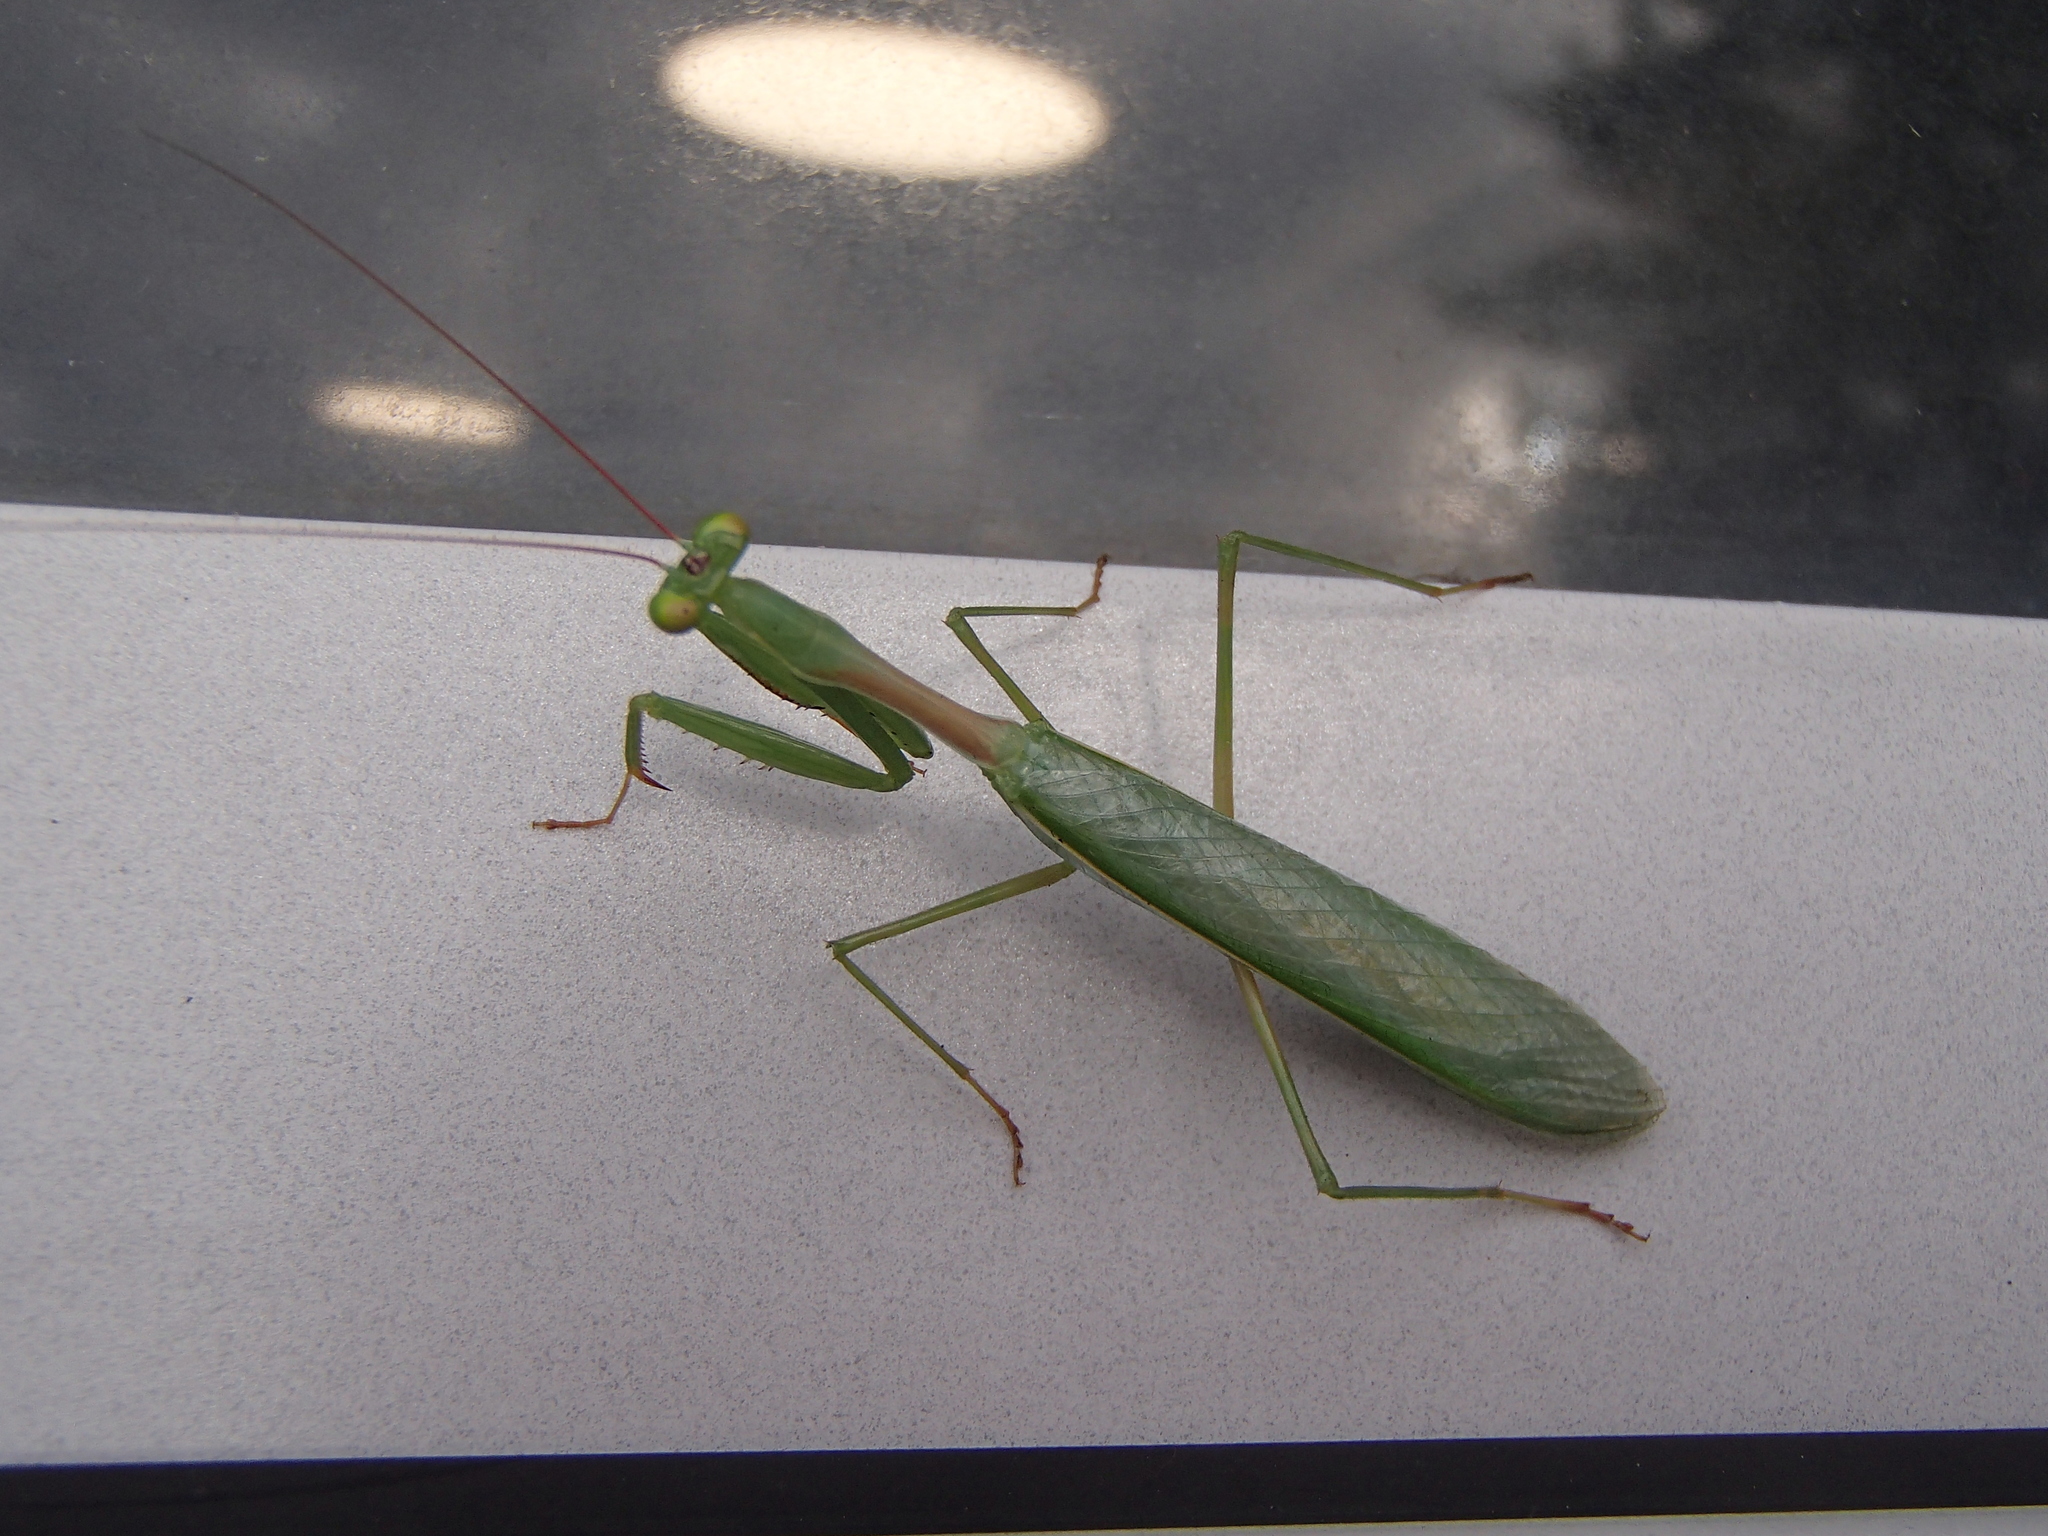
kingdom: Animalia
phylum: Arthropoda
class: Insecta
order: Mantodea
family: Miomantidae
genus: Miomantis
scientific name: Miomantis caffra
